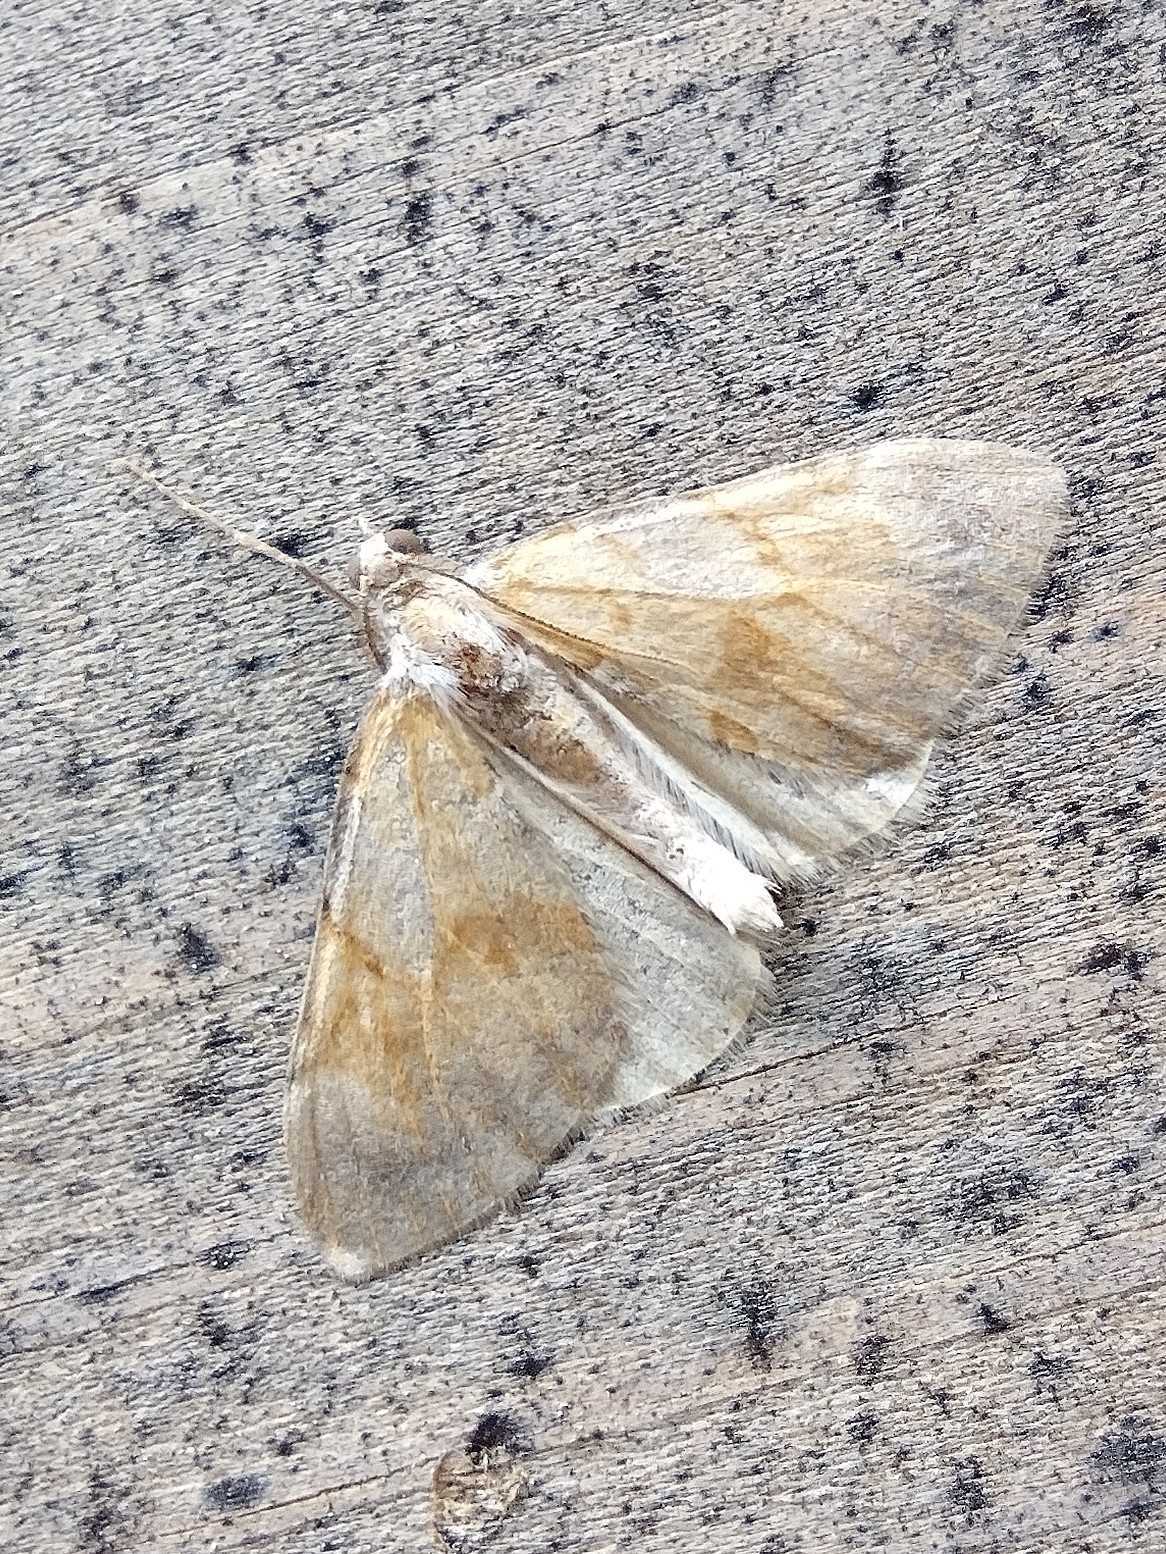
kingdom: Animalia
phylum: Arthropoda
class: Insecta
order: Lepidoptera
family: Geometridae
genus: Pennithera
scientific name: Pennithera firmata
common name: Pine carpet
